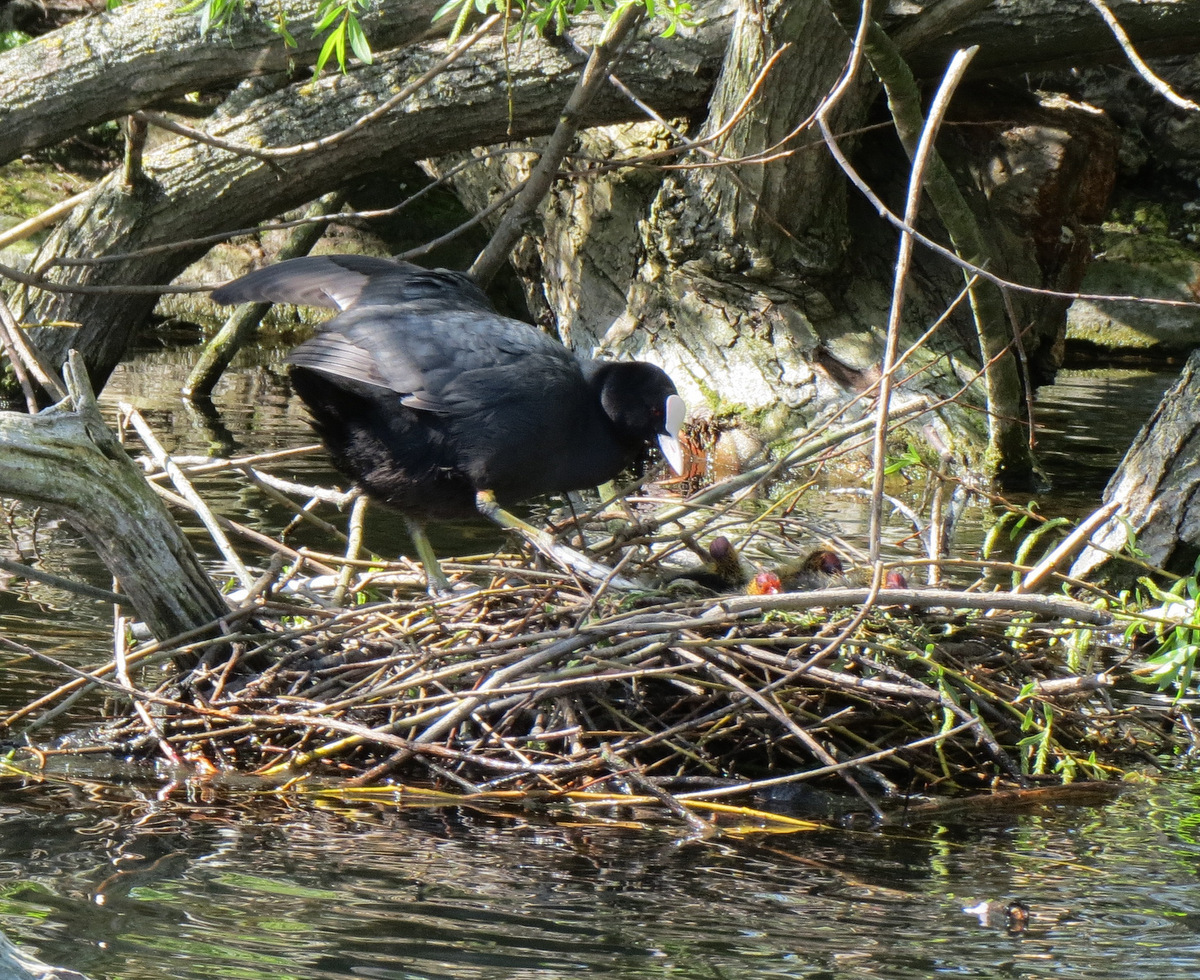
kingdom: Animalia
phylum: Chordata
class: Aves
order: Gruiformes
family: Rallidae
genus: Fulica
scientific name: Fulica atra
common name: Eurasian coot
